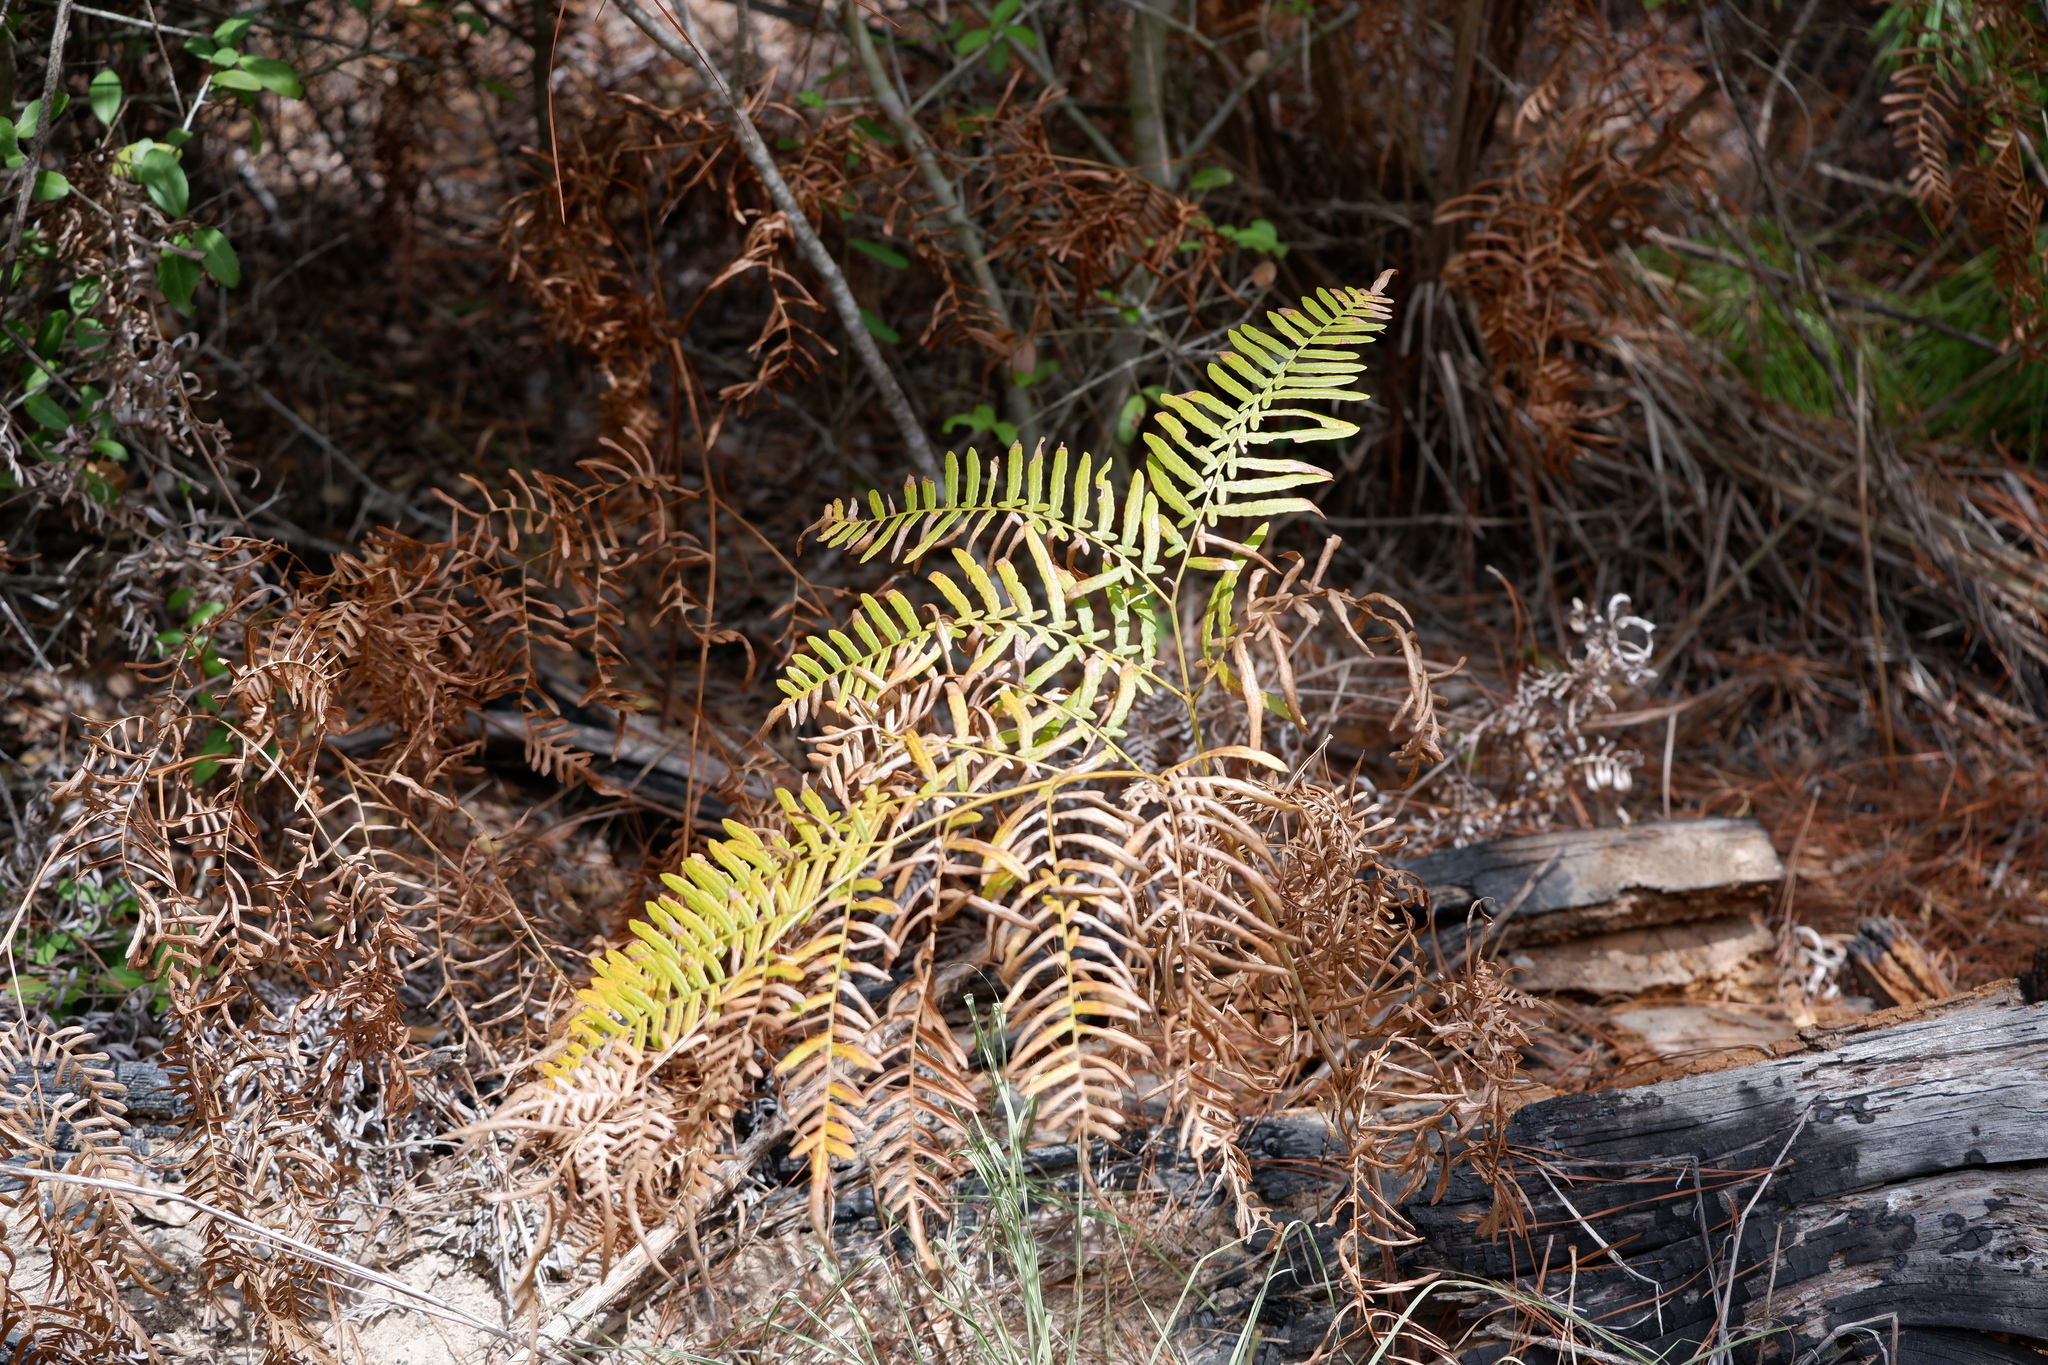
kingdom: Plantae
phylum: Tracheophyta
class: Polypodiopsida
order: Polypodiales
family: Dennstaedtiaceae
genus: Pteridium
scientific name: Pteridium
